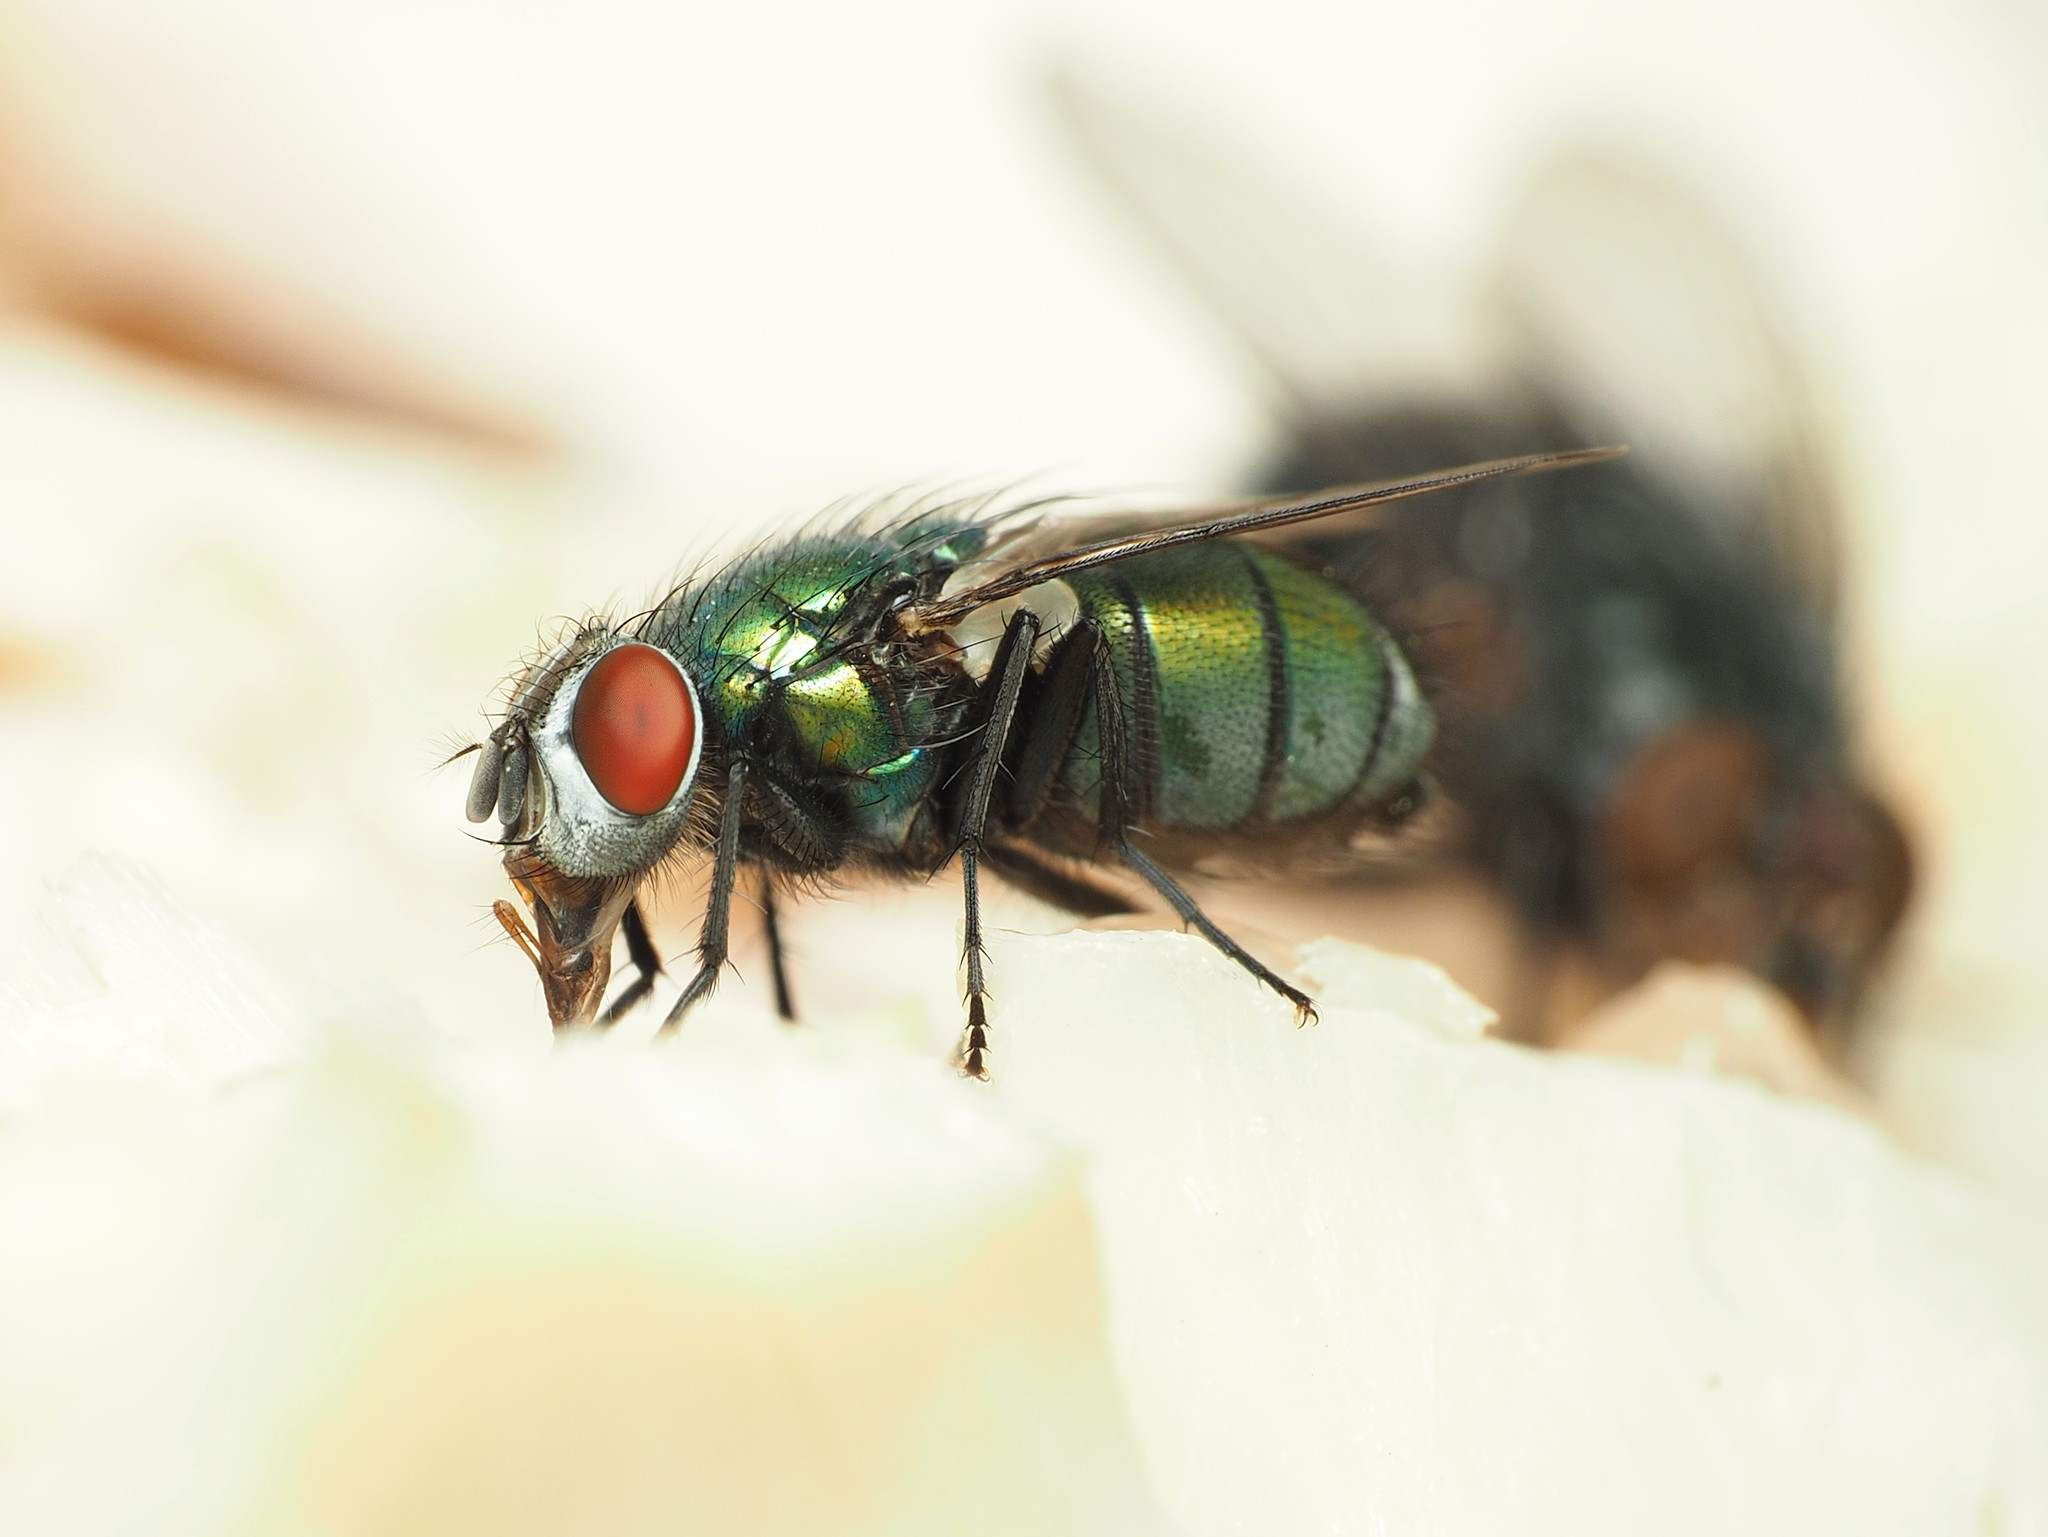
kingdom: Animalia
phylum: Arthropoda
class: Insecta
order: Diptera
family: Calliphoridae
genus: Lucilia
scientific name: Lucilia sericata
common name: Blow fly
